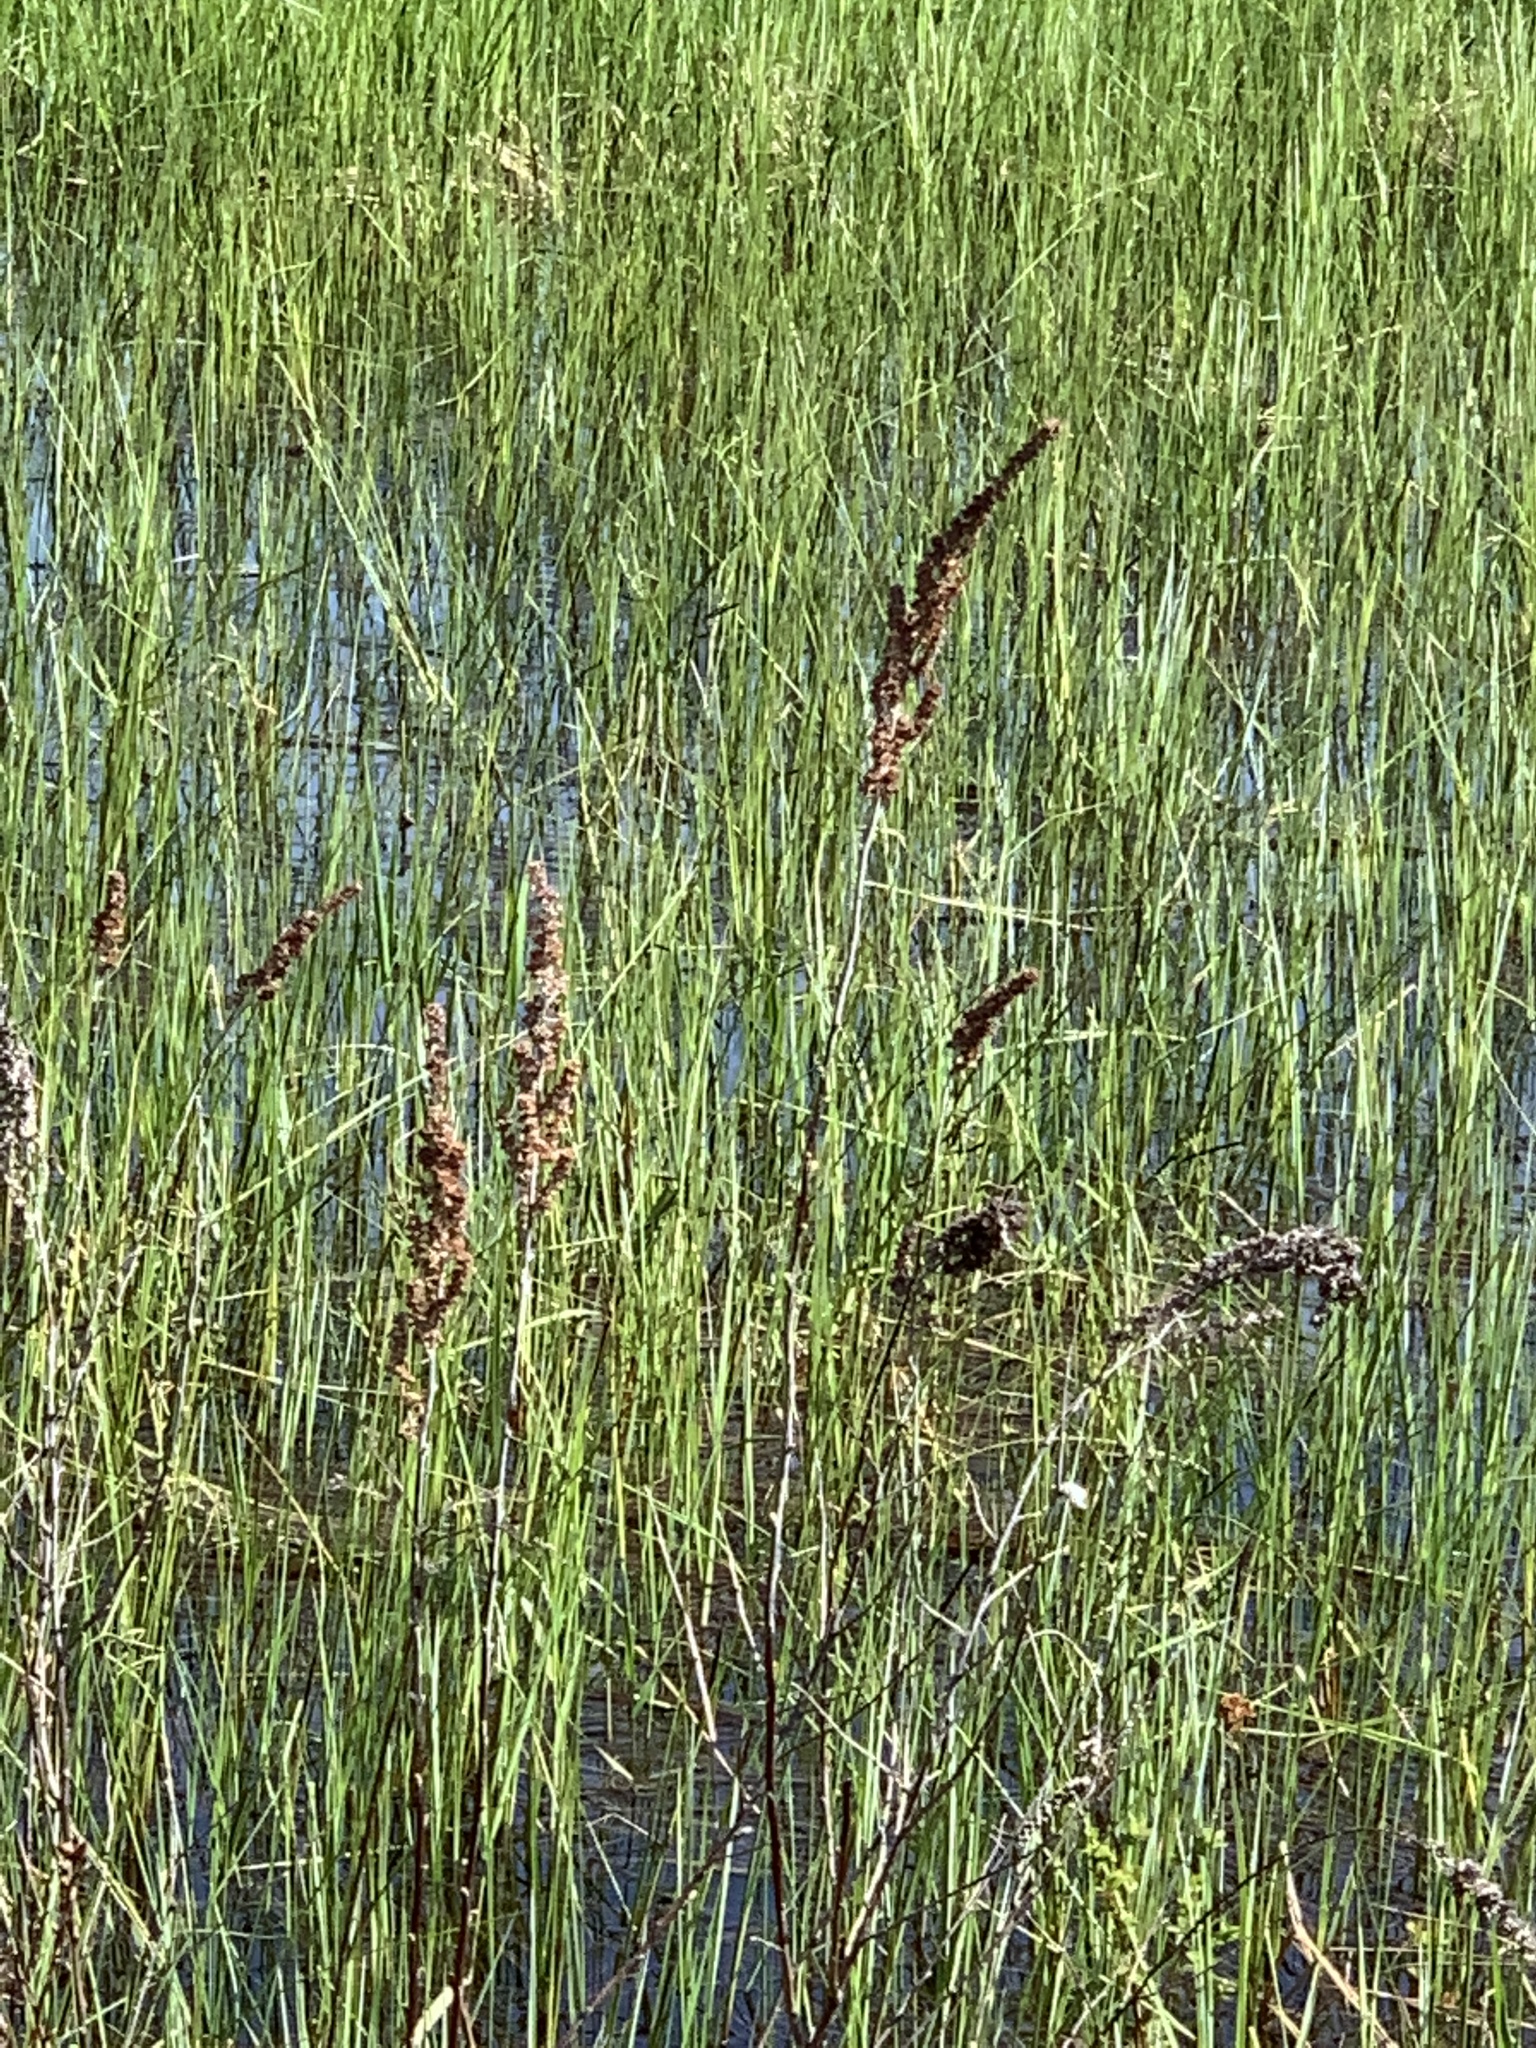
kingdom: Plantae
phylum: Tracheophyta
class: Magnoliopsida
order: Rosales
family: Rosaceae
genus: Spiraea
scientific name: Spiraea tomentosa
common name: Hardhack
